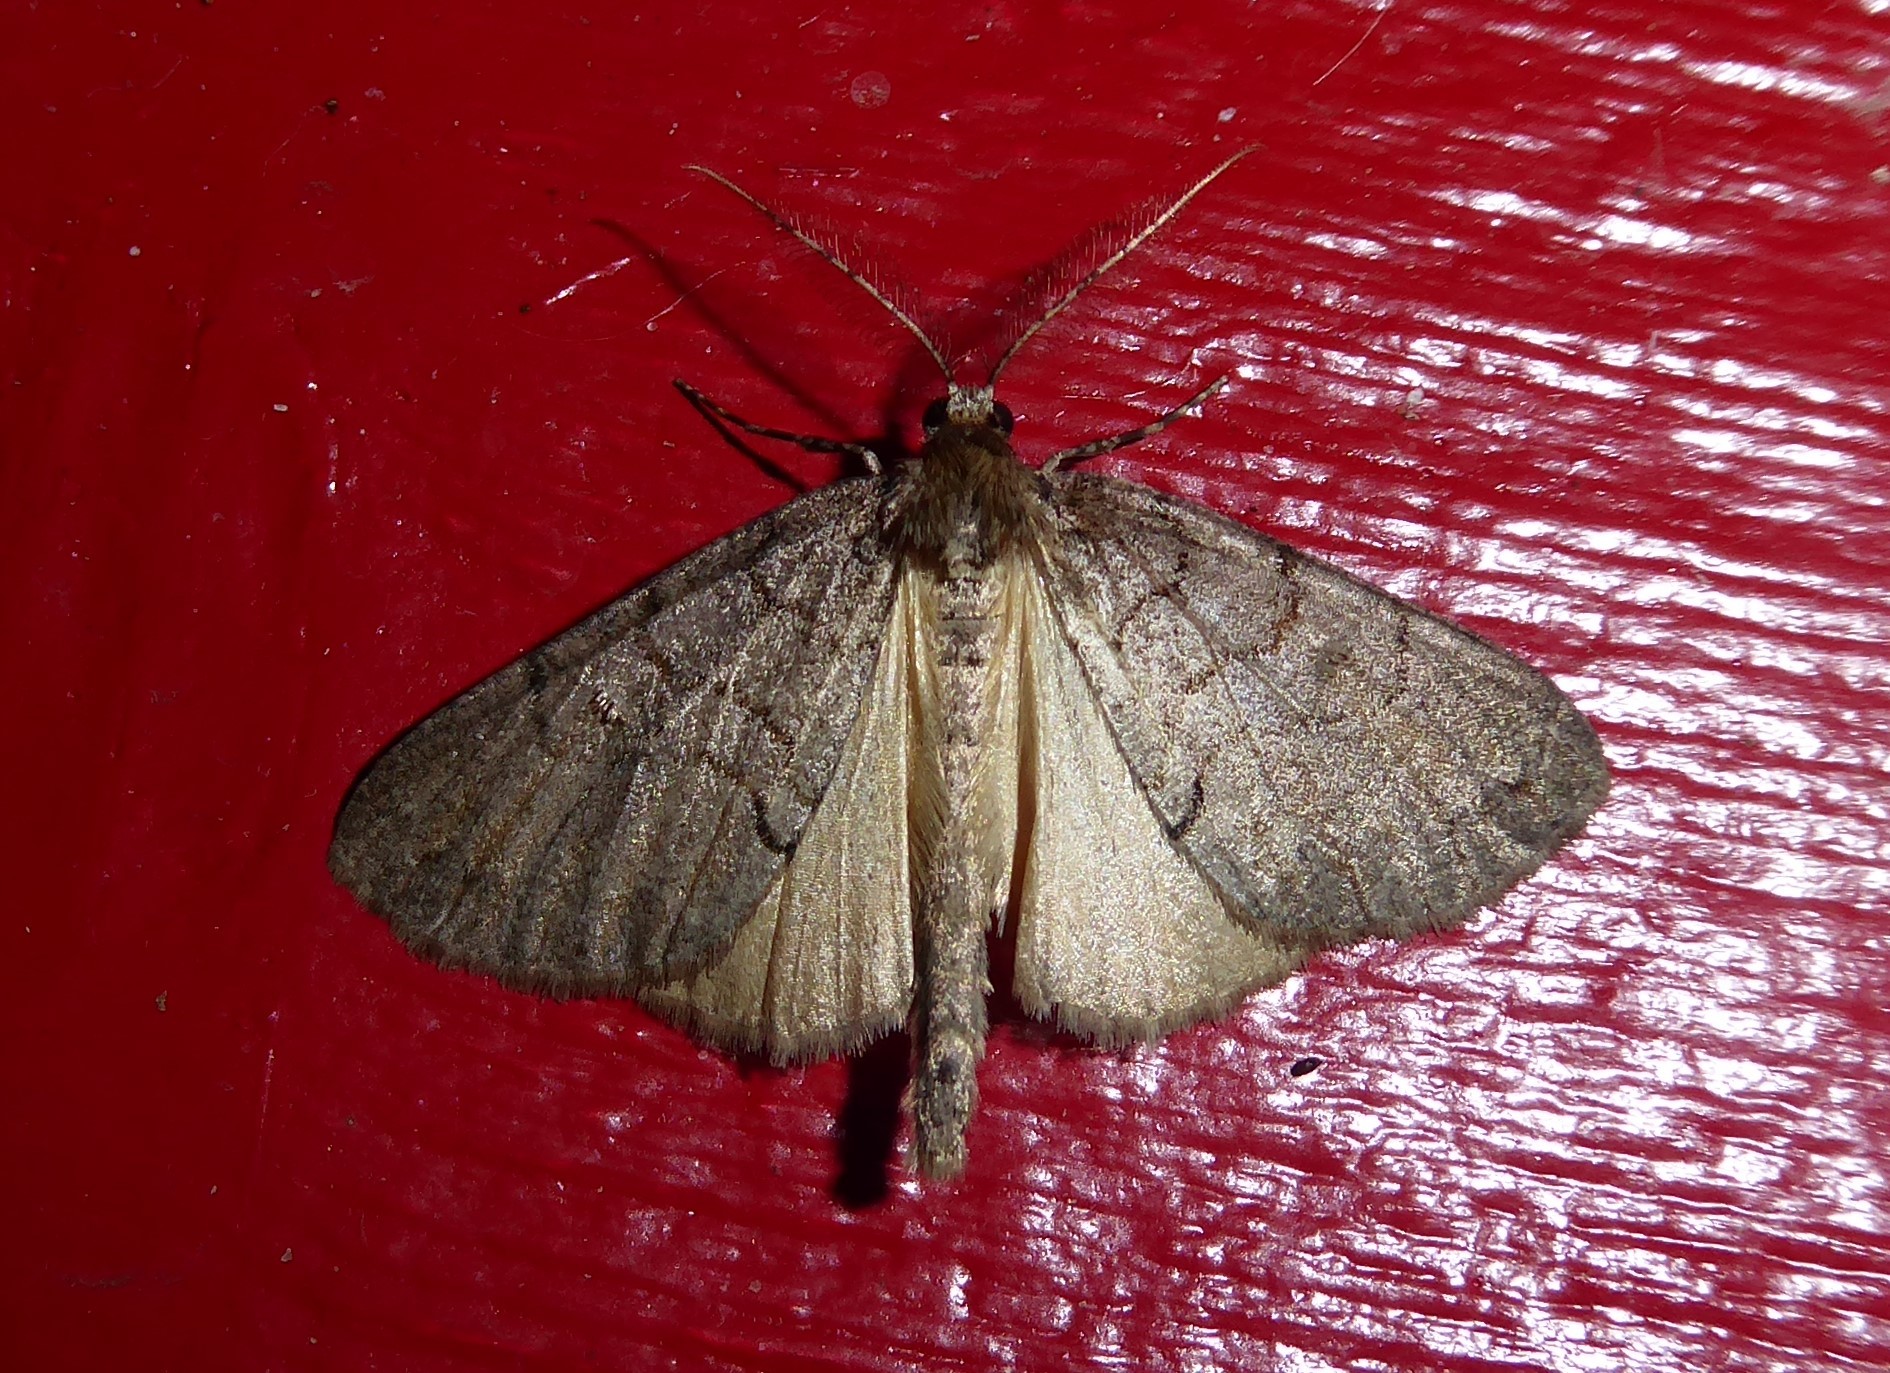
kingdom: Animalia
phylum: Arthropoda
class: Insecta
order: Lepidoptera
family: Geometridae
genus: Pseudocoremia
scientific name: Pseudocoremia suavis
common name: Common forest looper
